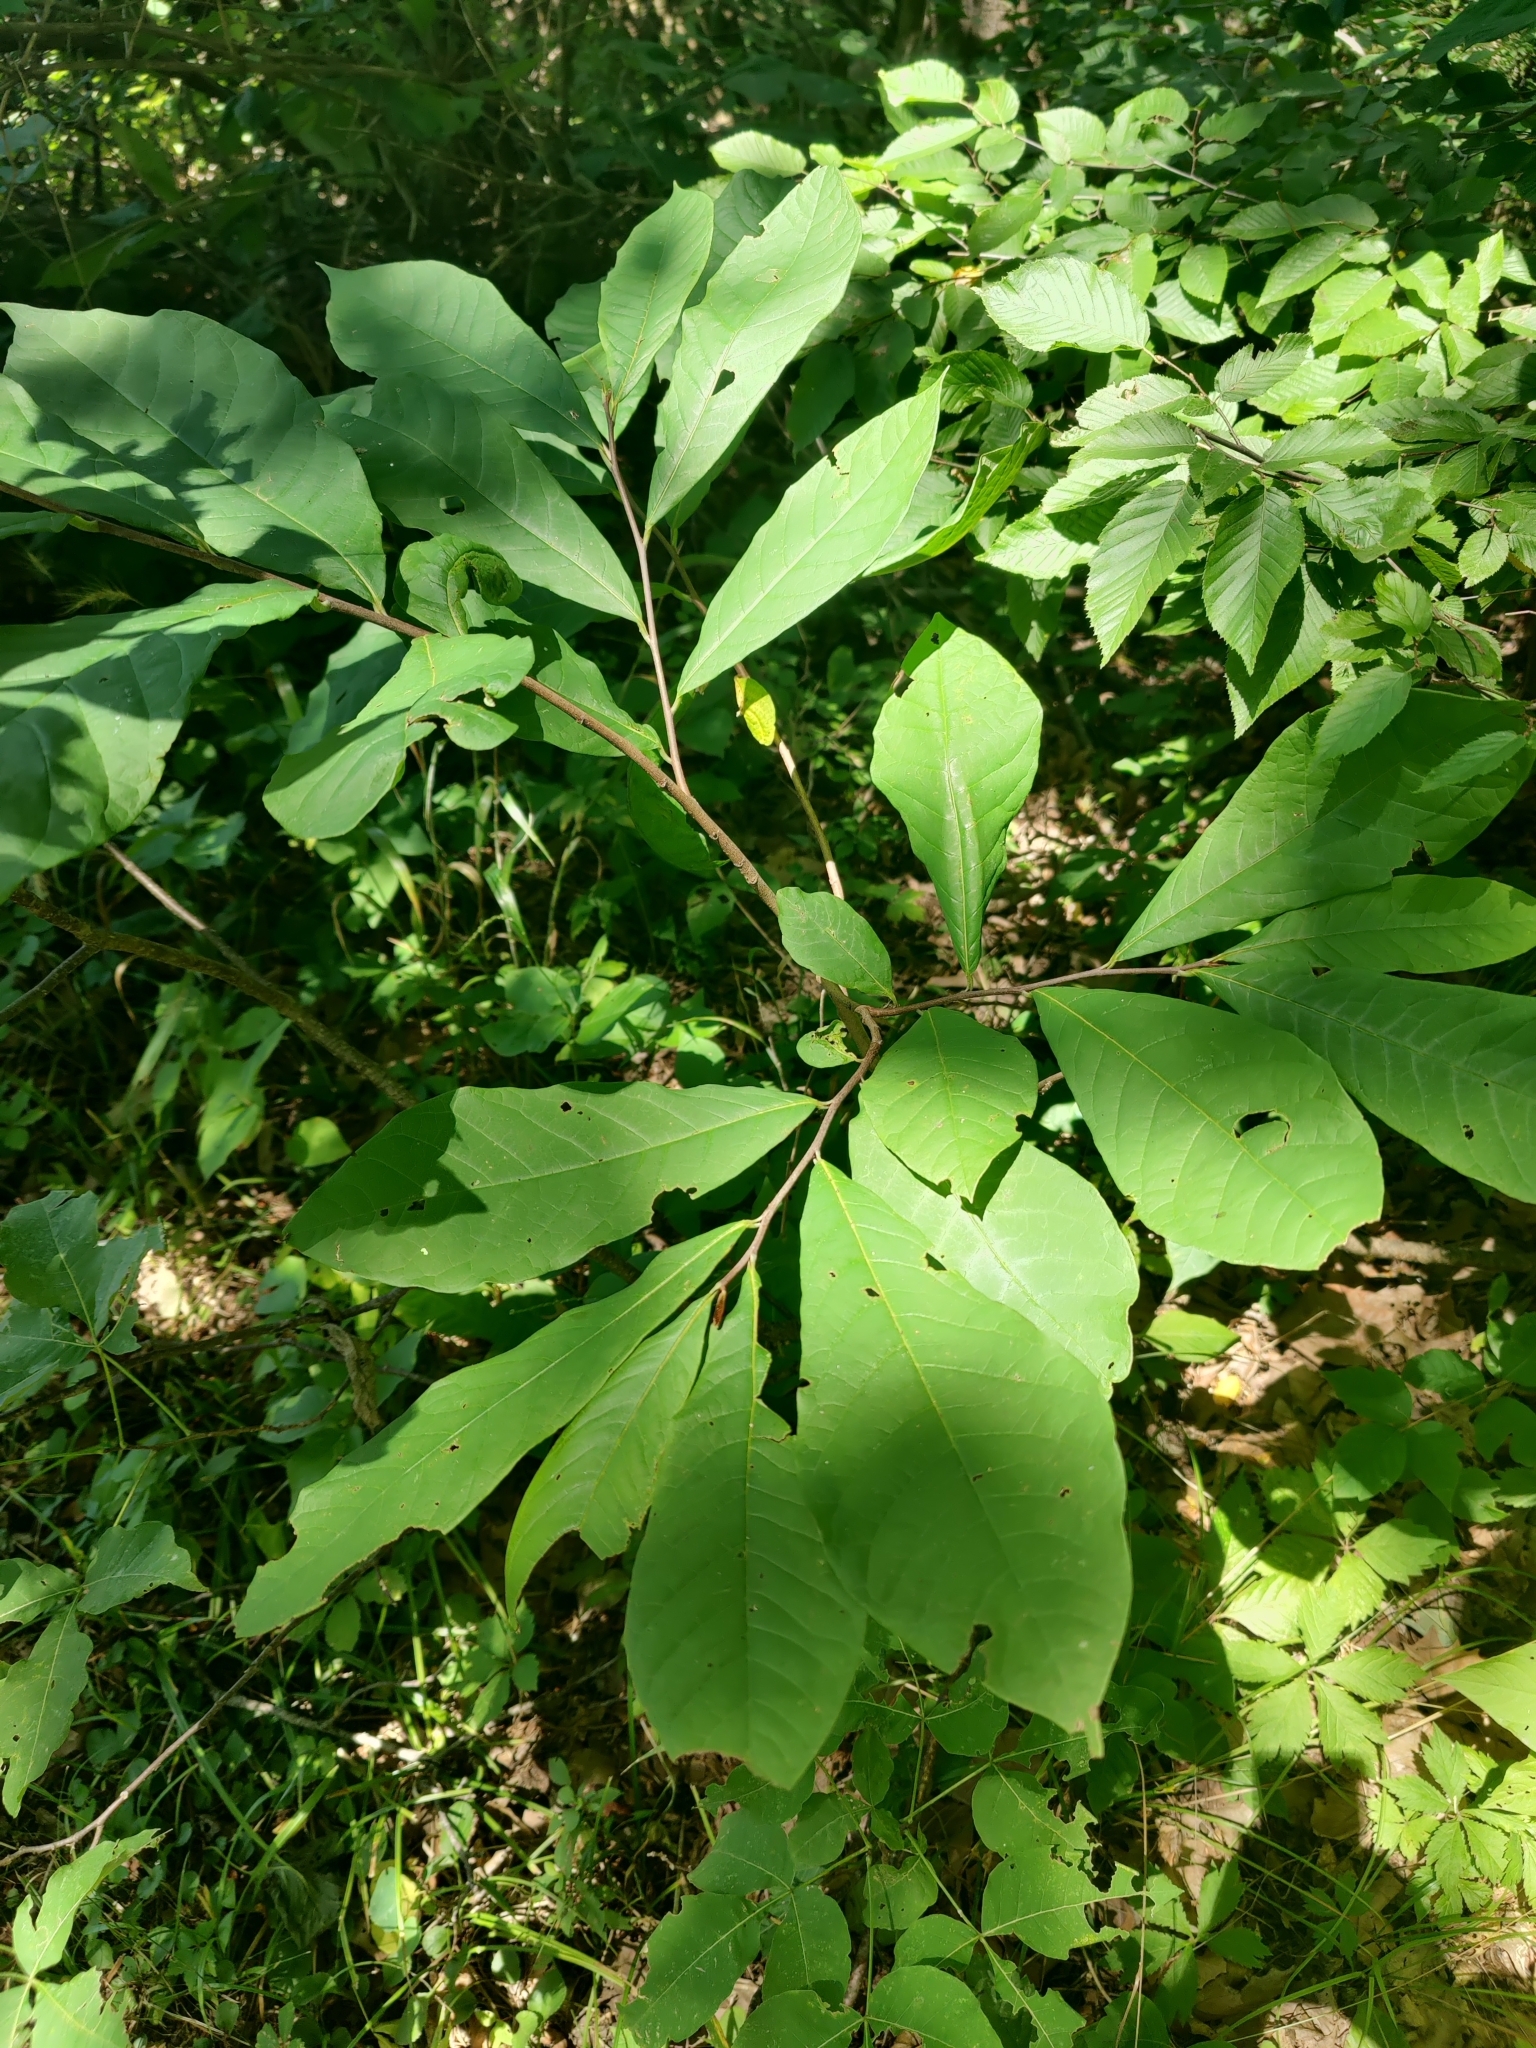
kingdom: Plantae
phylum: Tracheophyta
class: Magnoliopsida
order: Magnoliales
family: Annonaceae
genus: Asimina
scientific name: Asimina triloba
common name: Dog-banana
